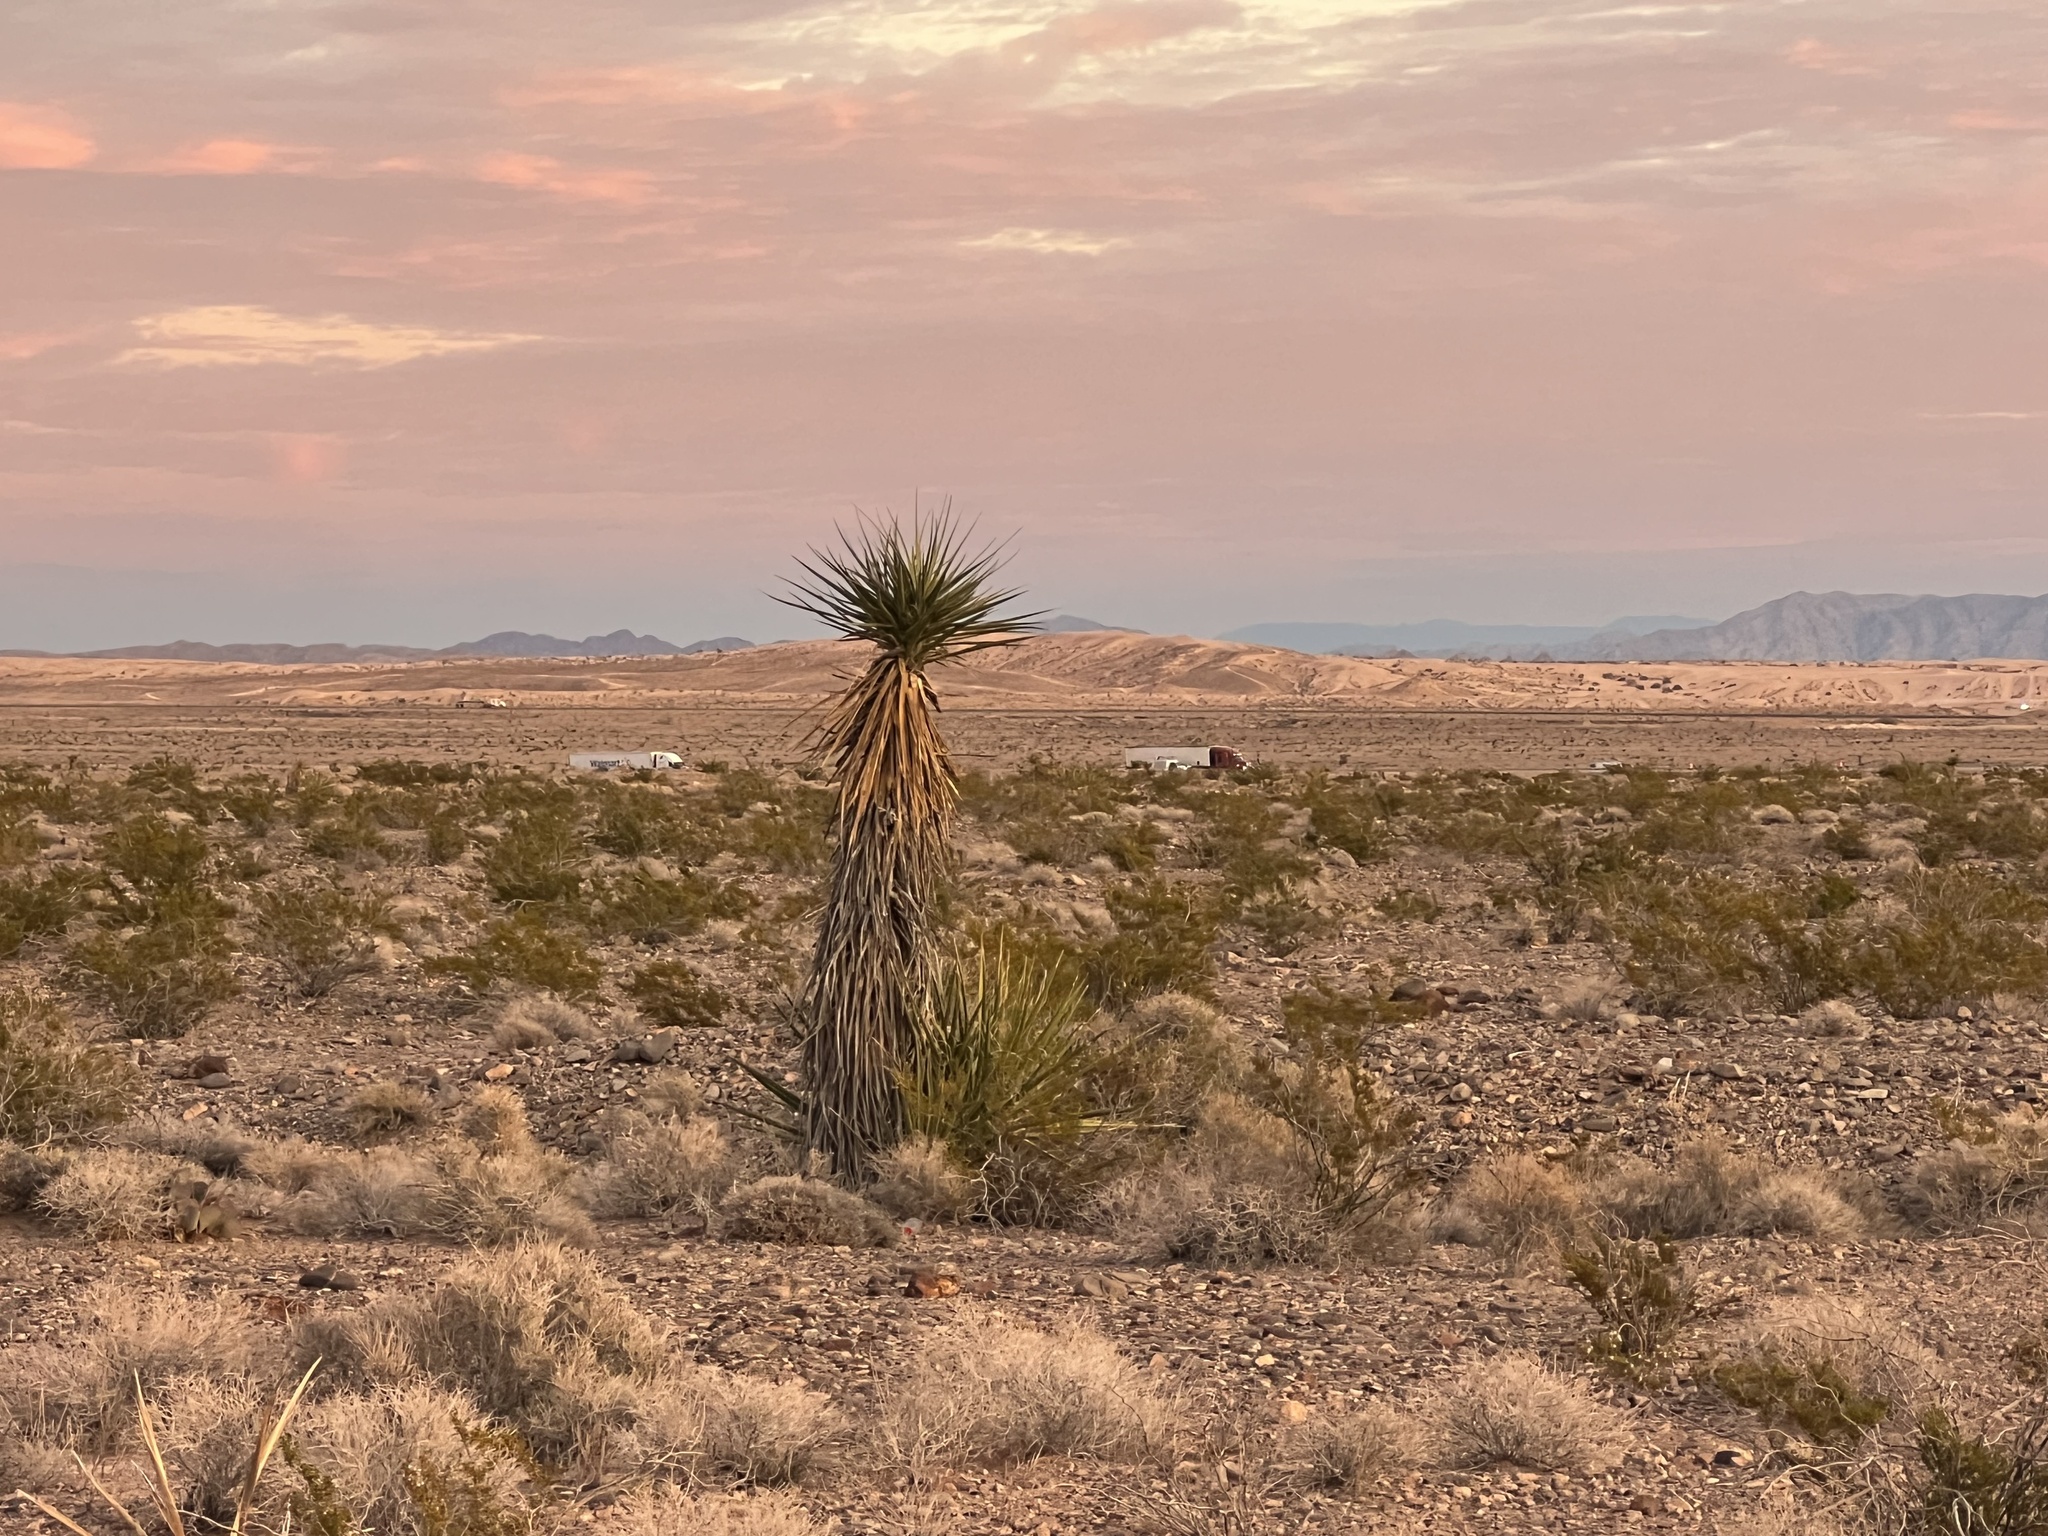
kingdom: Plantae
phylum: Tracheophyta
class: Liliopsida
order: Asparagales
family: Asparagaceae
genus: Yucca
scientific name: Yucca schidigera
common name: Mojave yucca
